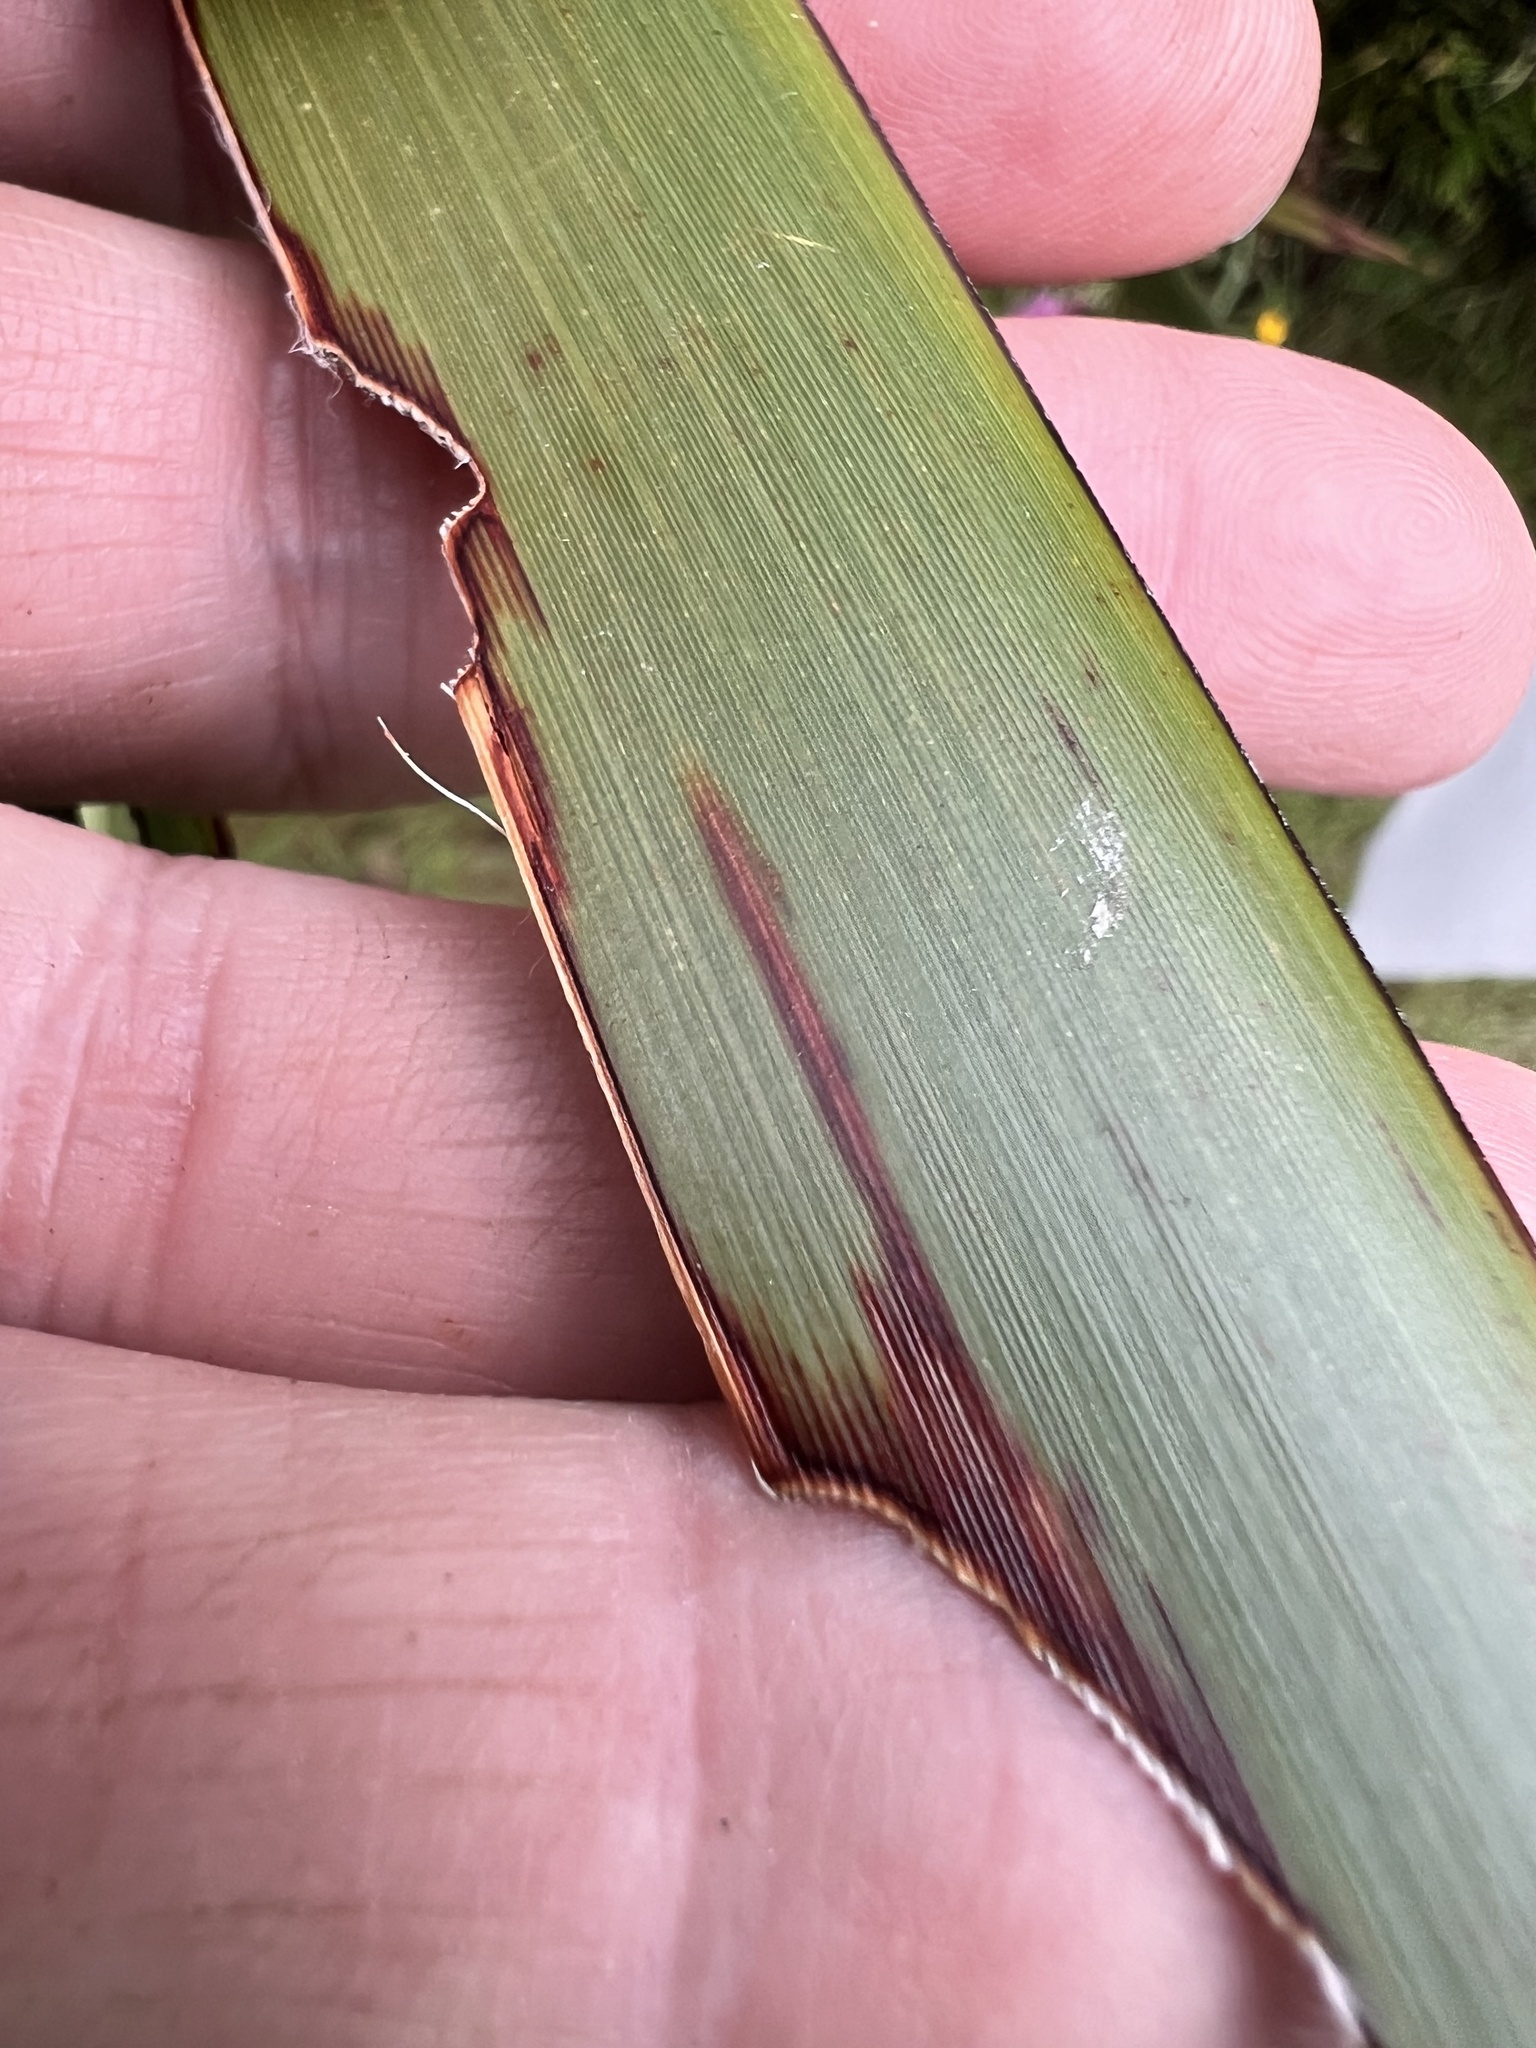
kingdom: Animalia
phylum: Arthropoda
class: Insecta
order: Lepidoptera
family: Noctuidae
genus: Ichneutica
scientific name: Ichneutica
